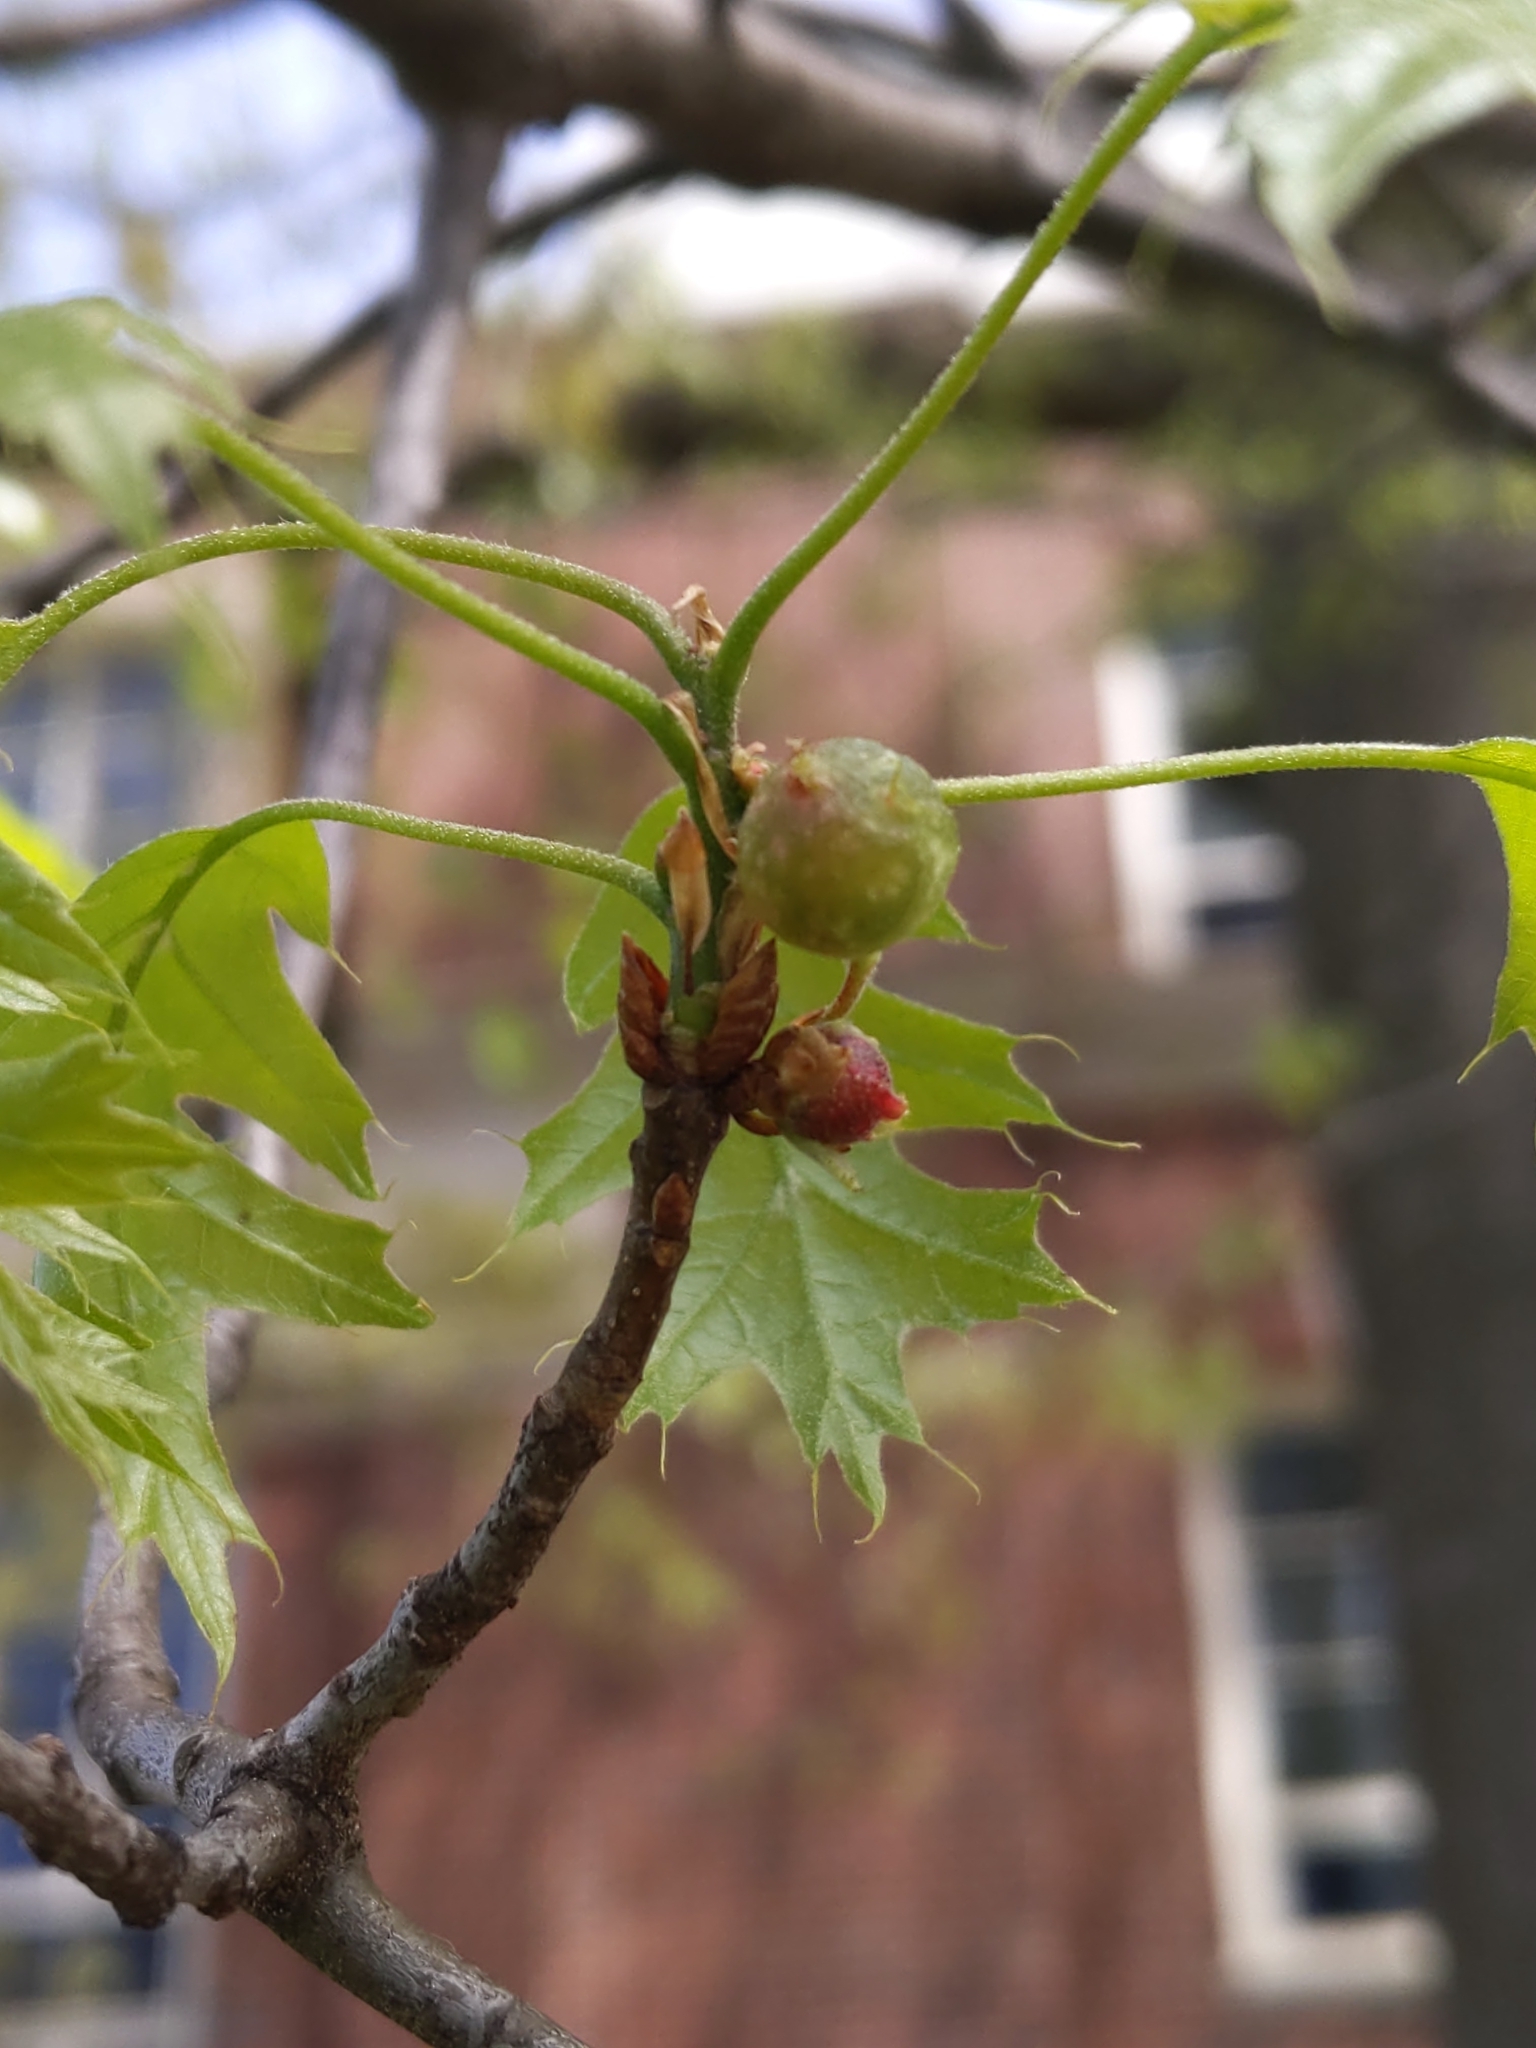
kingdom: Animalia
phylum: Arthropoda
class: Insecta
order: Hymenoptera
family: Cynipidae
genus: Dryocosmus
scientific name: Dryocosmus quercuspalustris
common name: Succulent oak gall wasp
